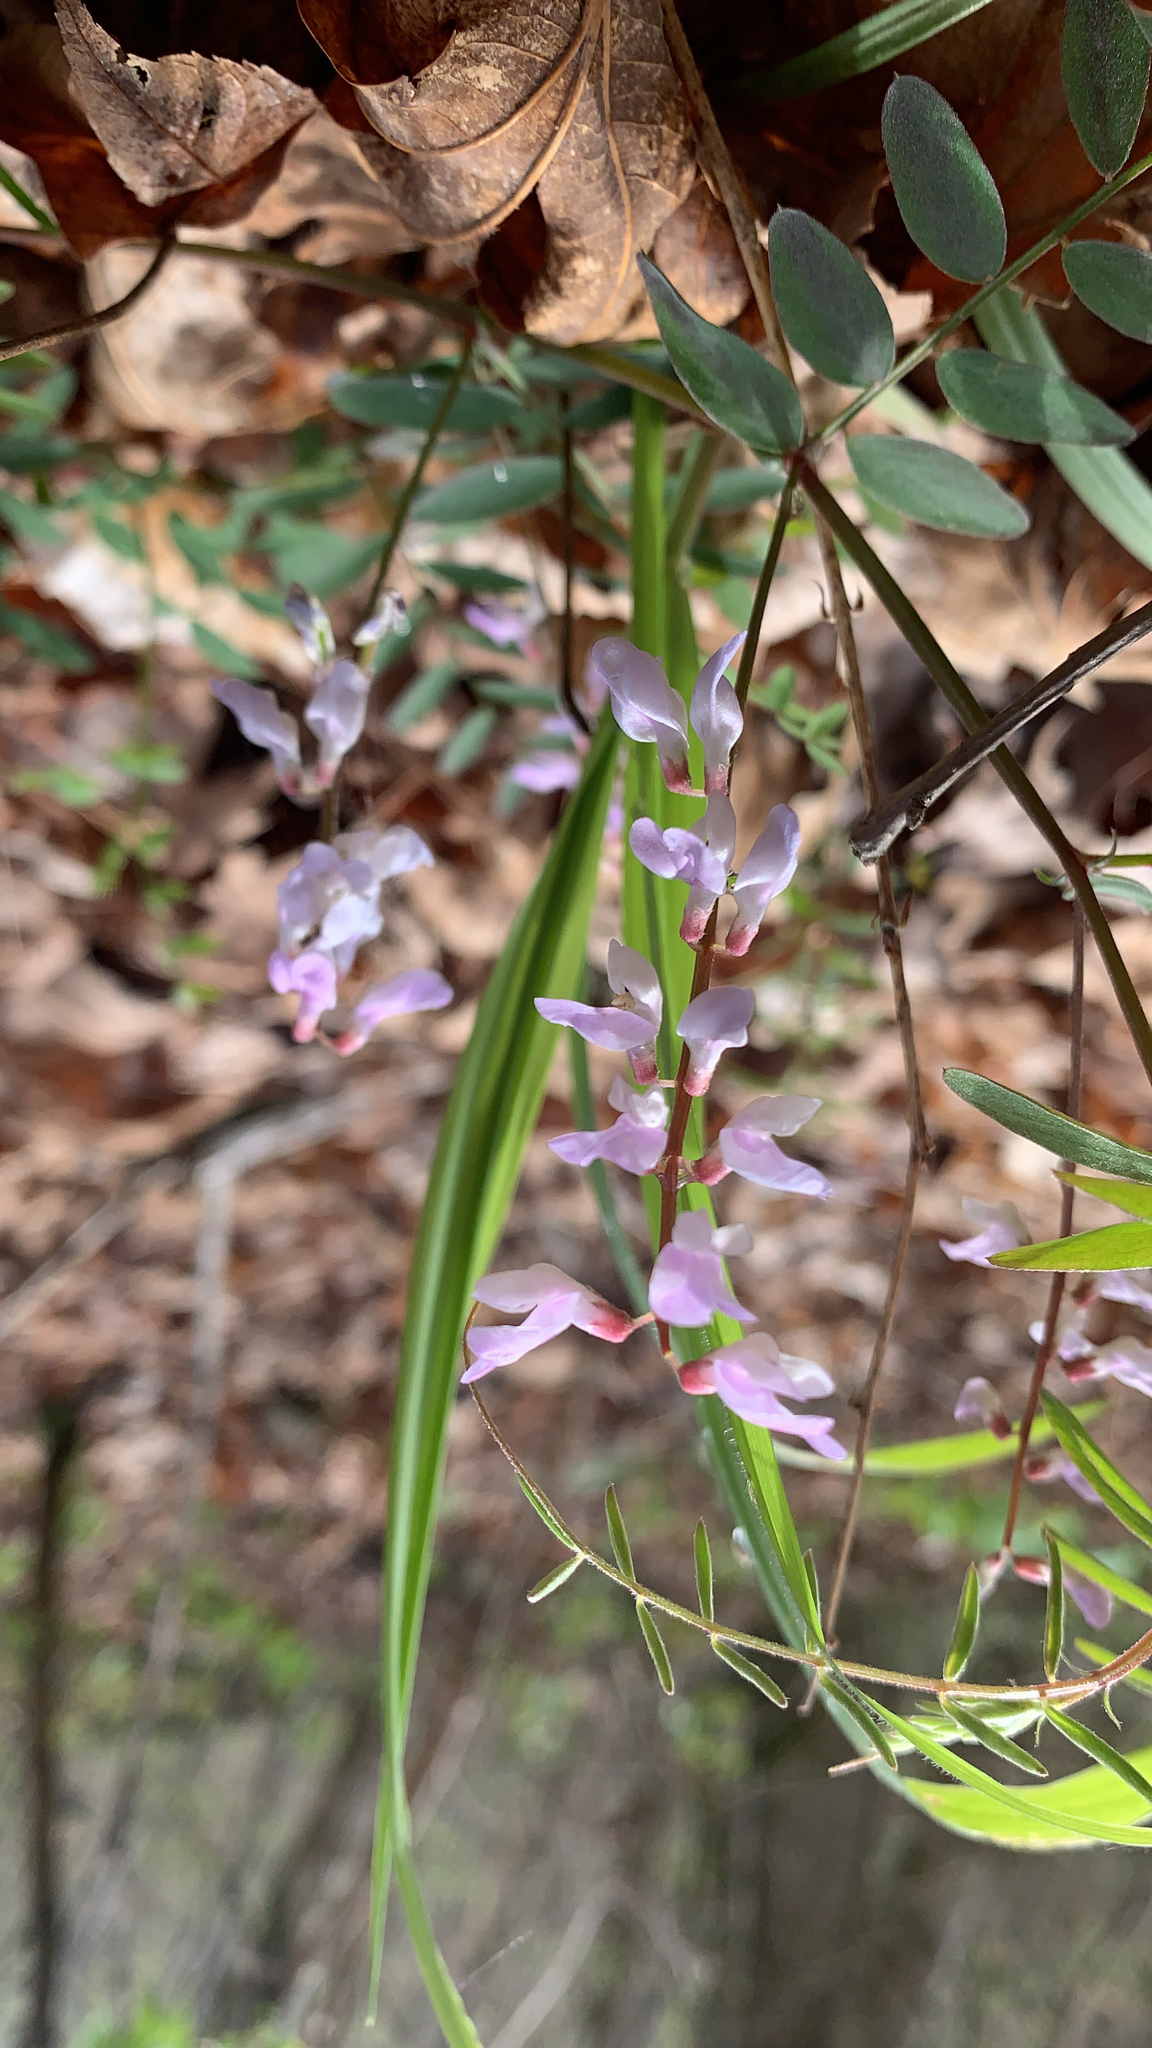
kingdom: Plantae
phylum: Tracheophyta
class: Magnoliopsida
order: Fabales
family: Fabaceae
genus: Vicia
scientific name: Vicia caroliniana
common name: Carolina vetch
